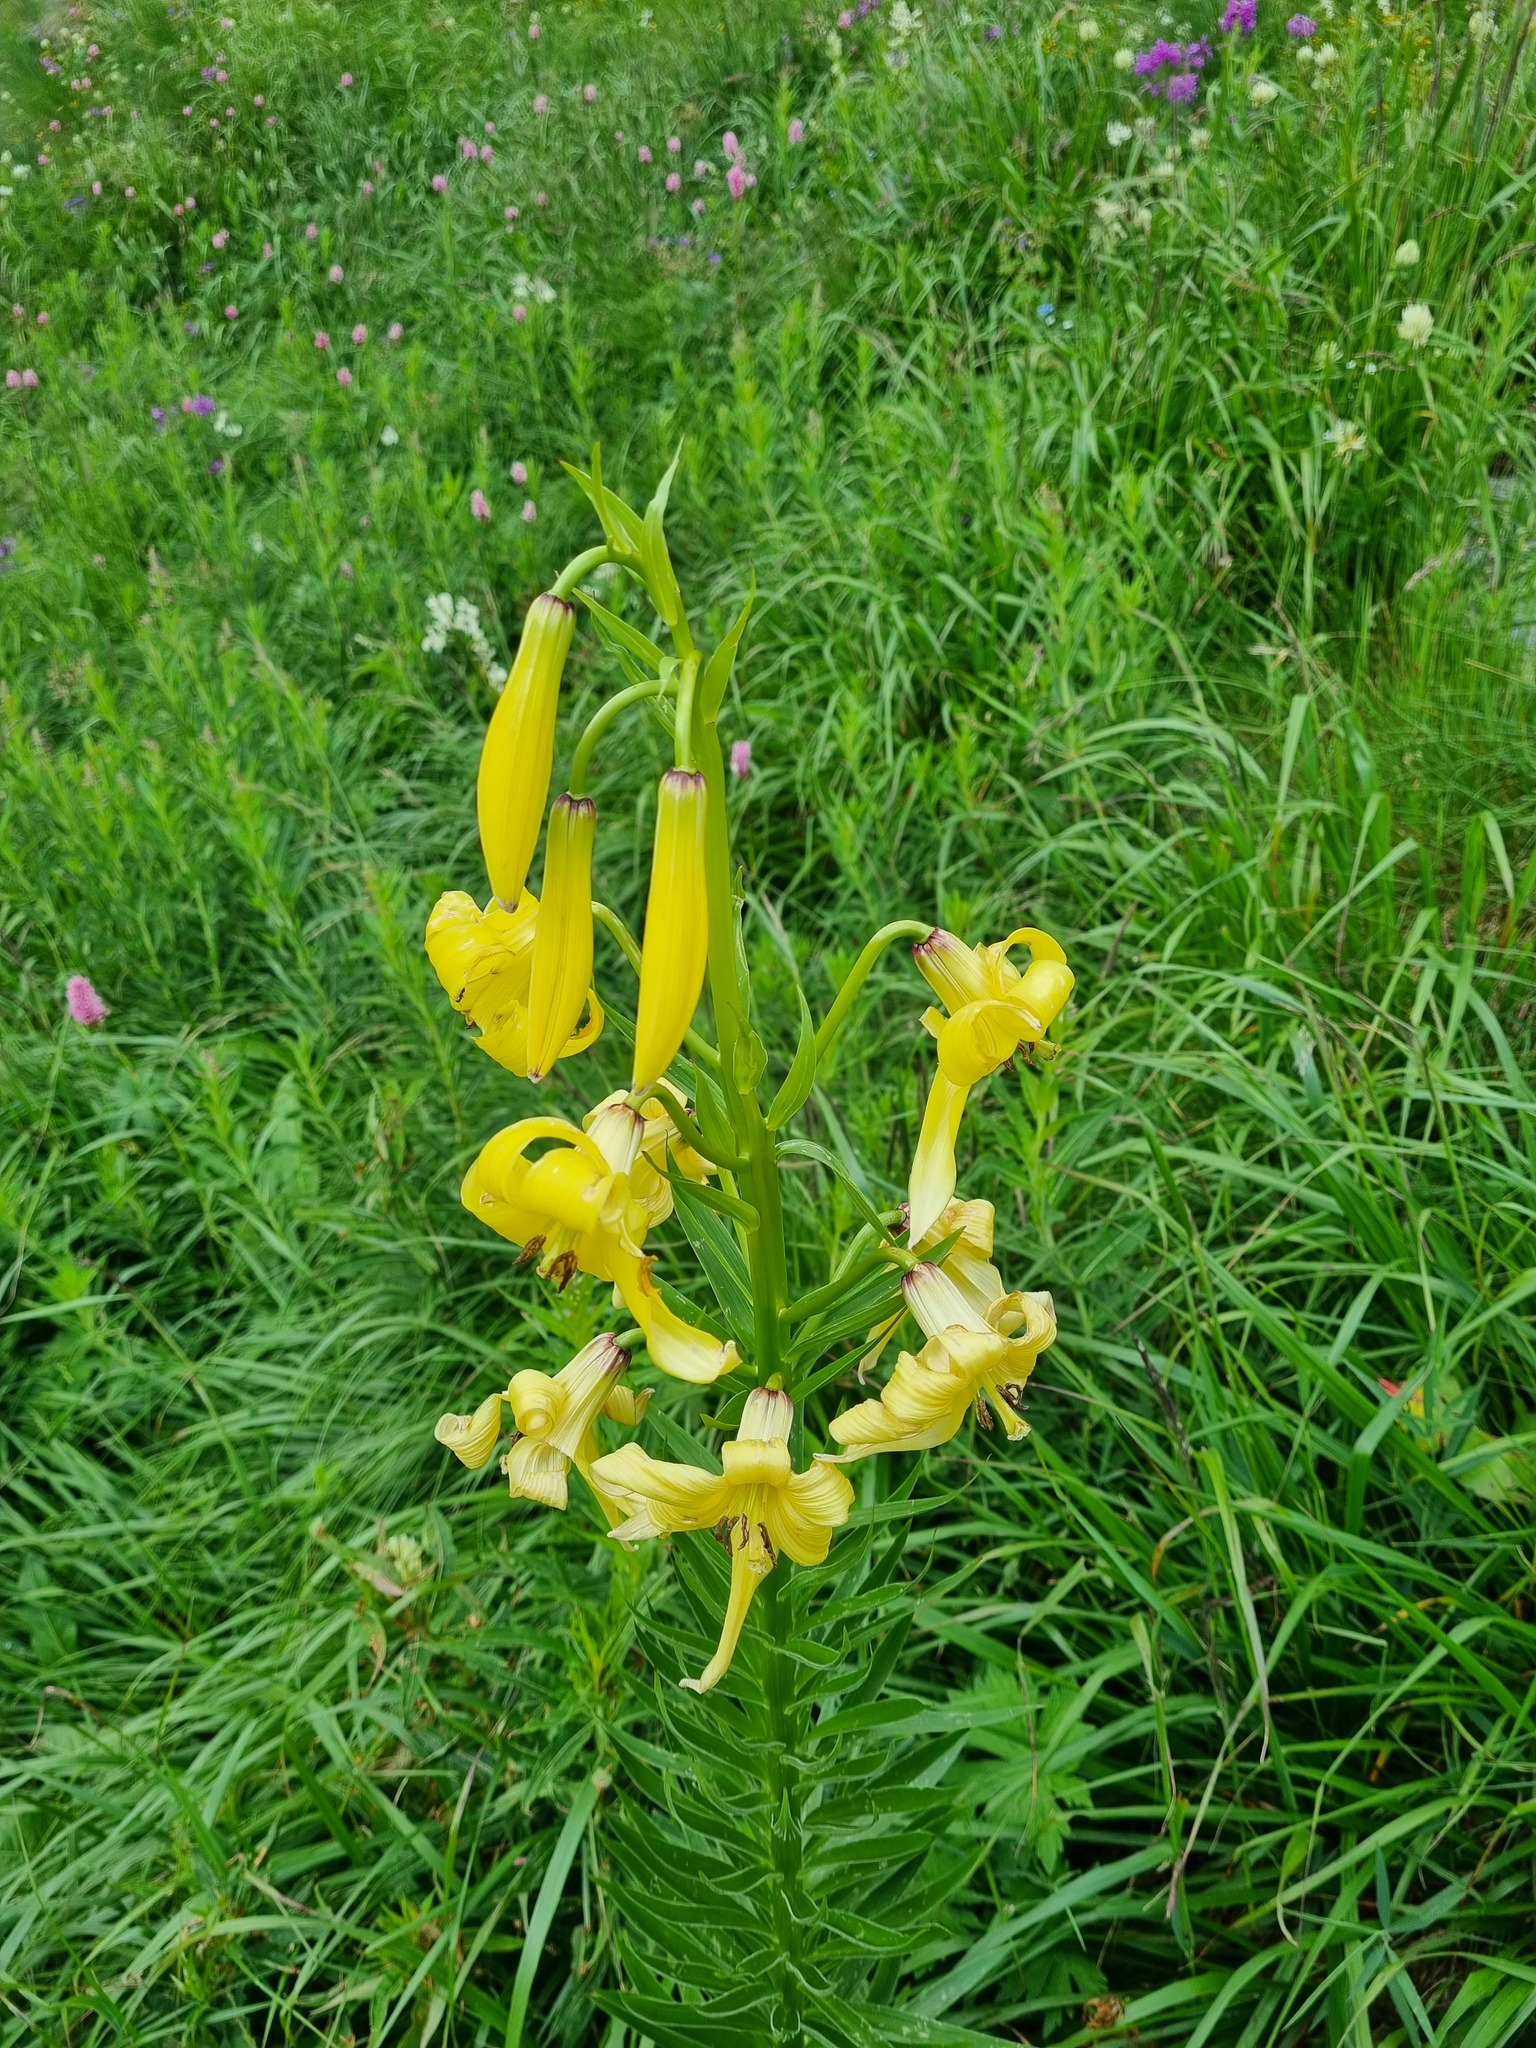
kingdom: Plantae
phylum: Tracheophyta
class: Liliopsida
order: Liliales
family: Liliaceae
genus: Lilium
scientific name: Lilium monadelphum
